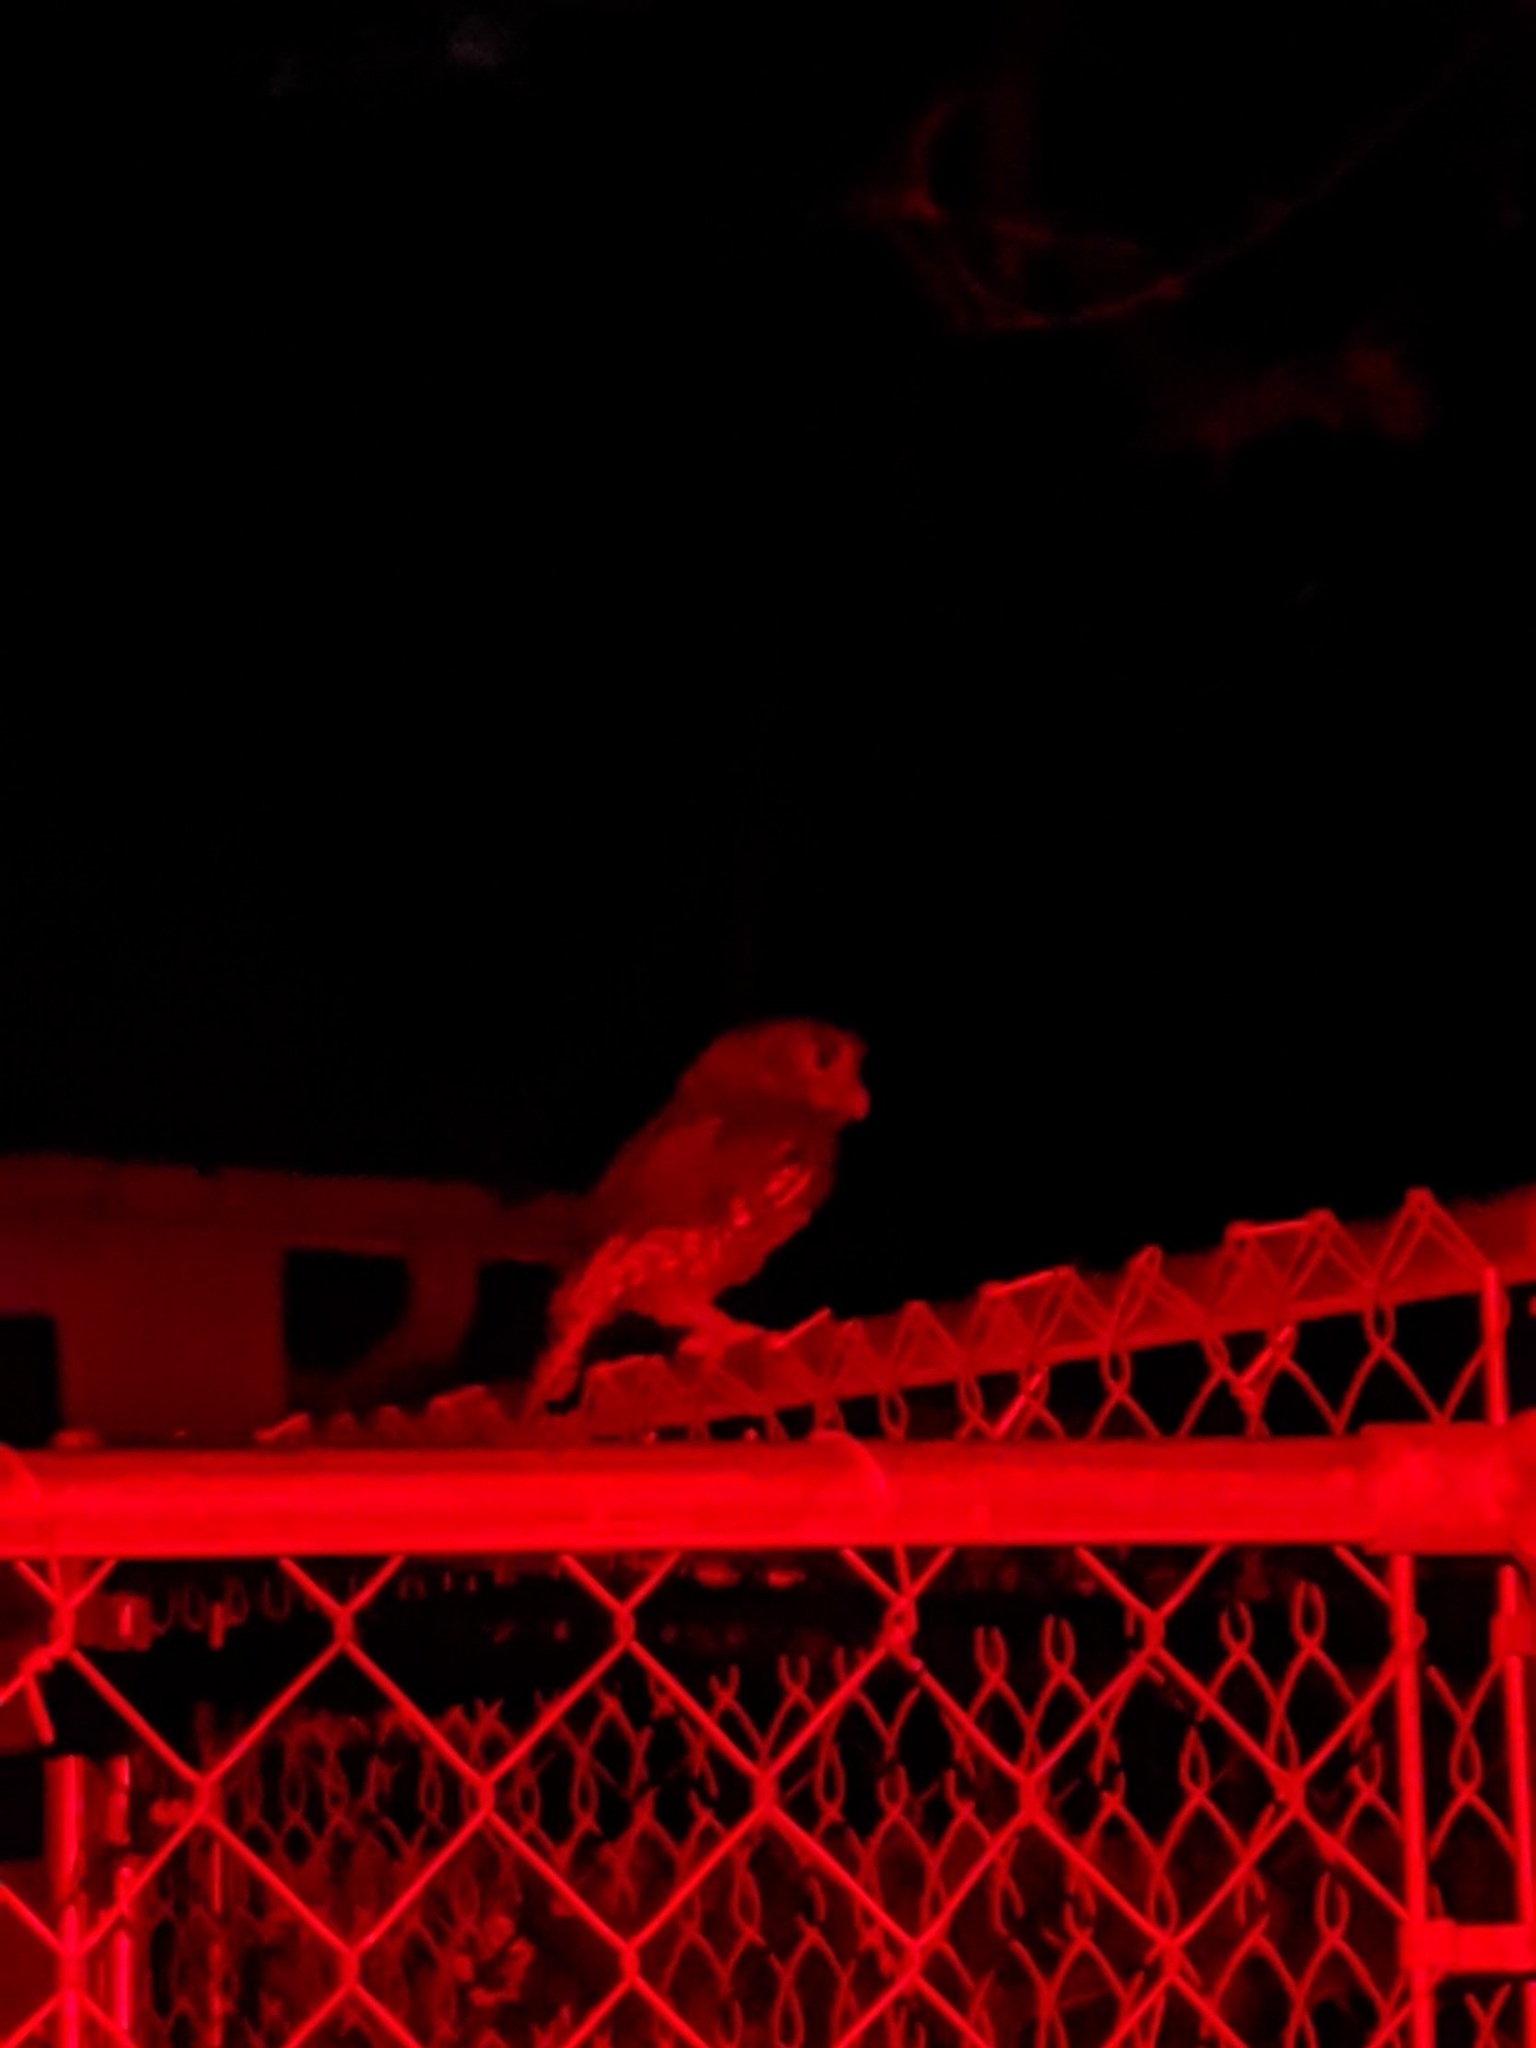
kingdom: Animalia
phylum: Chordata
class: Aves
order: Strigiformes
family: Strigidae
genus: Megascops
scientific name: Megascops asio
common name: Eastern screech-owl
